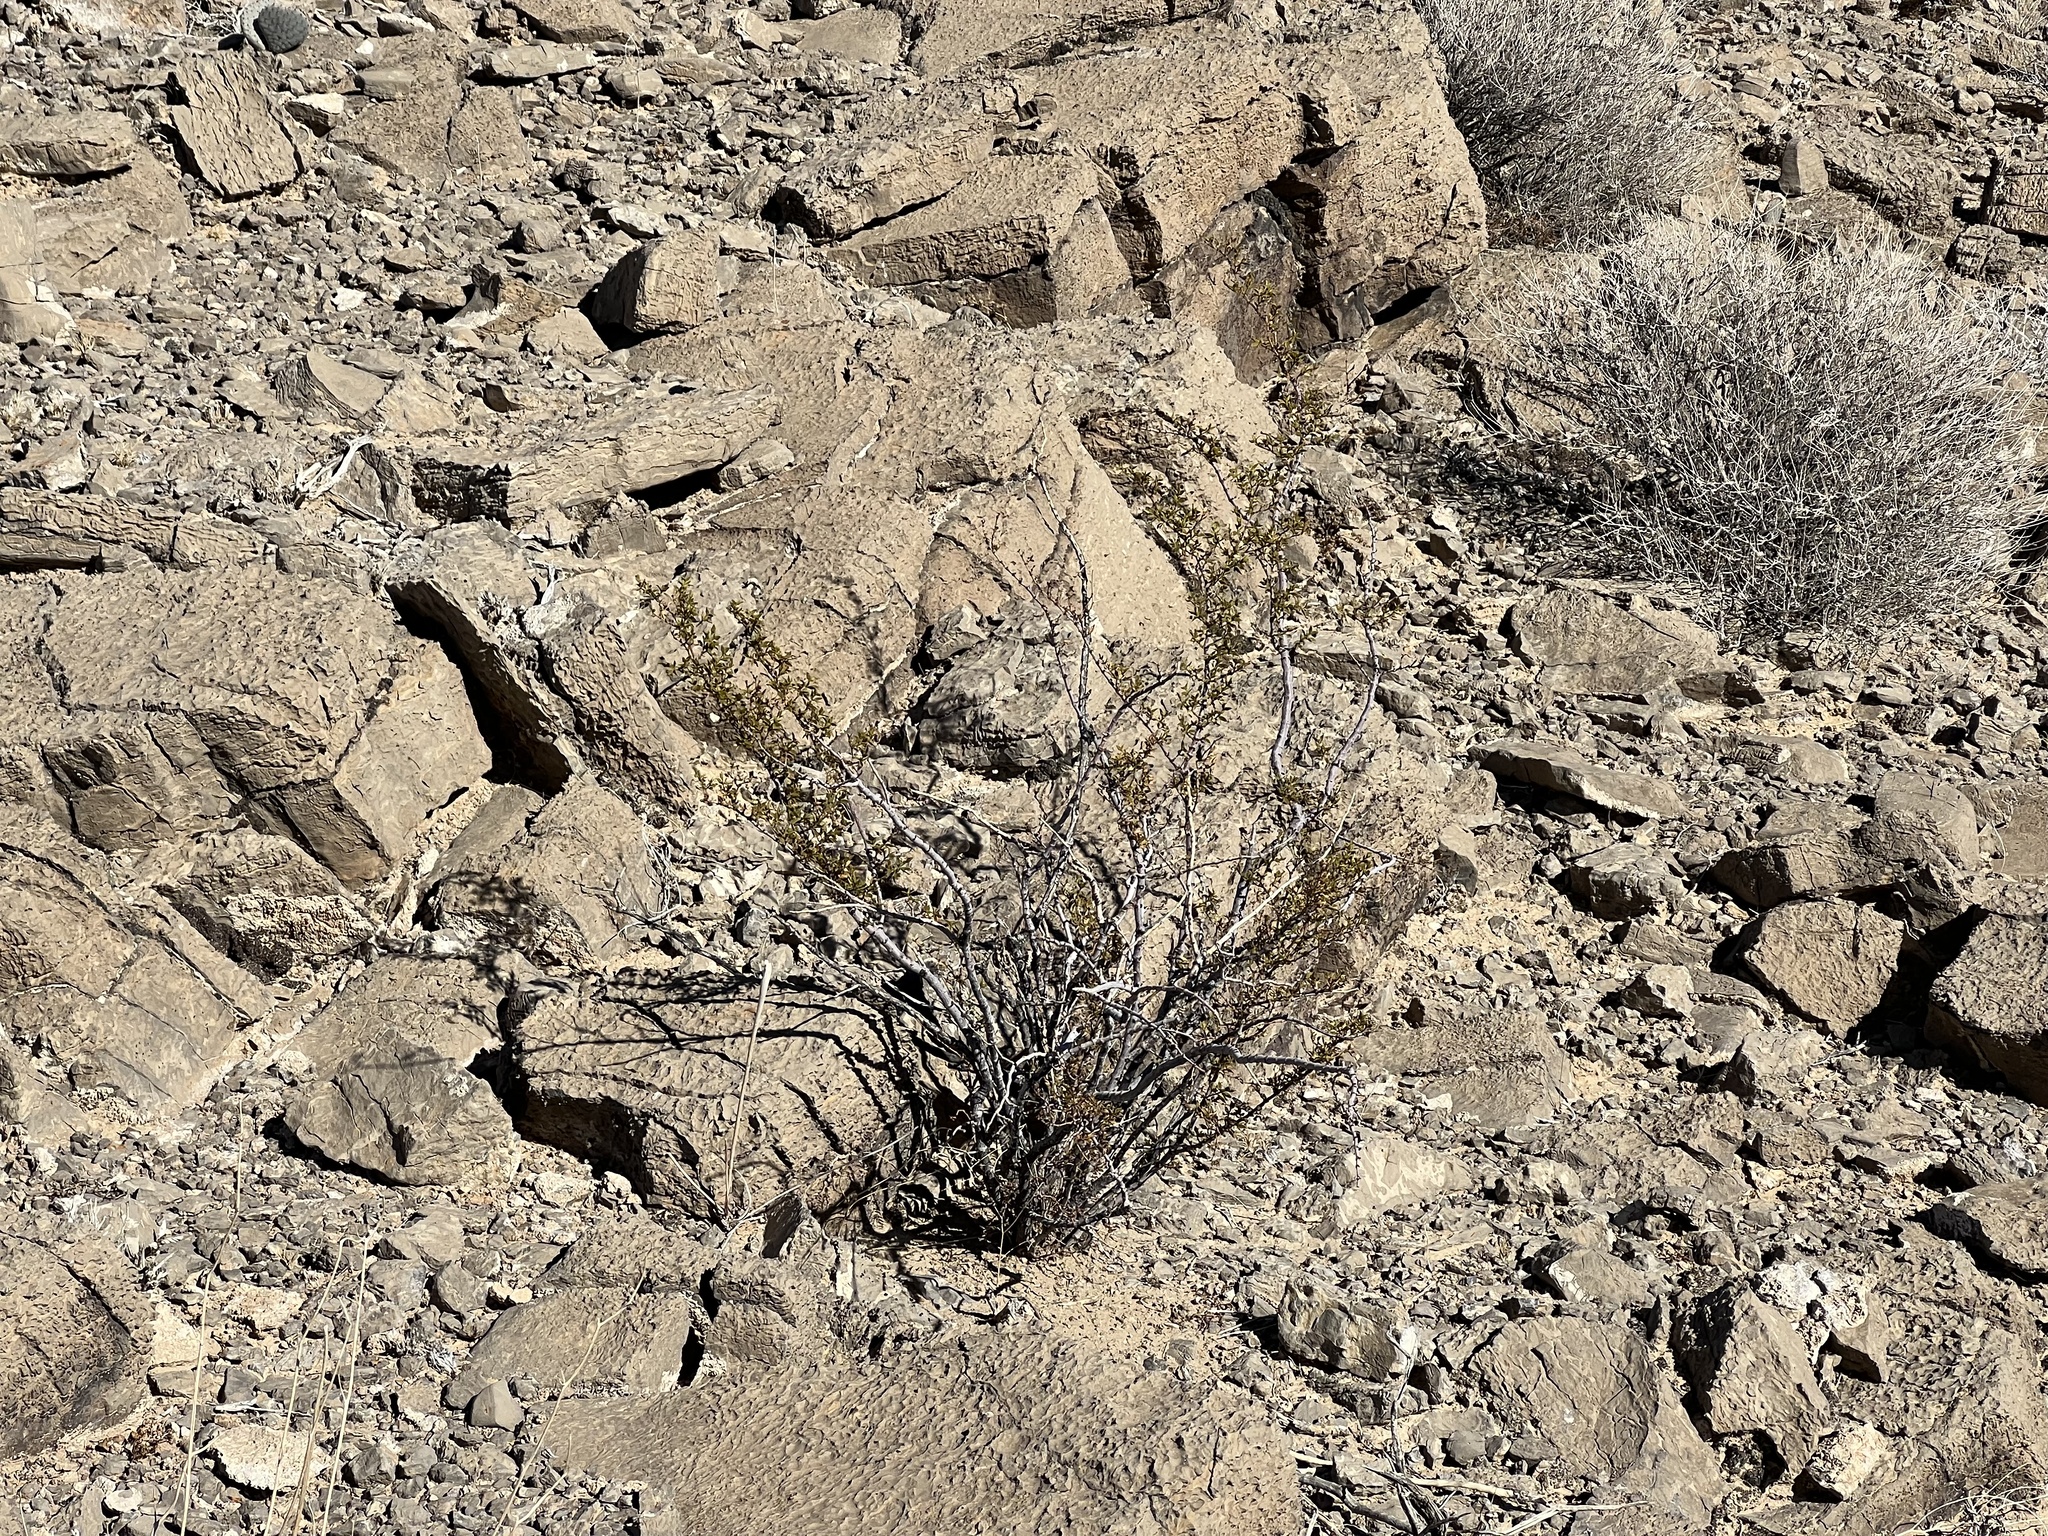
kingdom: Plantae
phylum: Tracheophyta
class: Magnoliopsida
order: Zygophyllales
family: Zygophyllaceae
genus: Larrea
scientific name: Larrea tridentata
